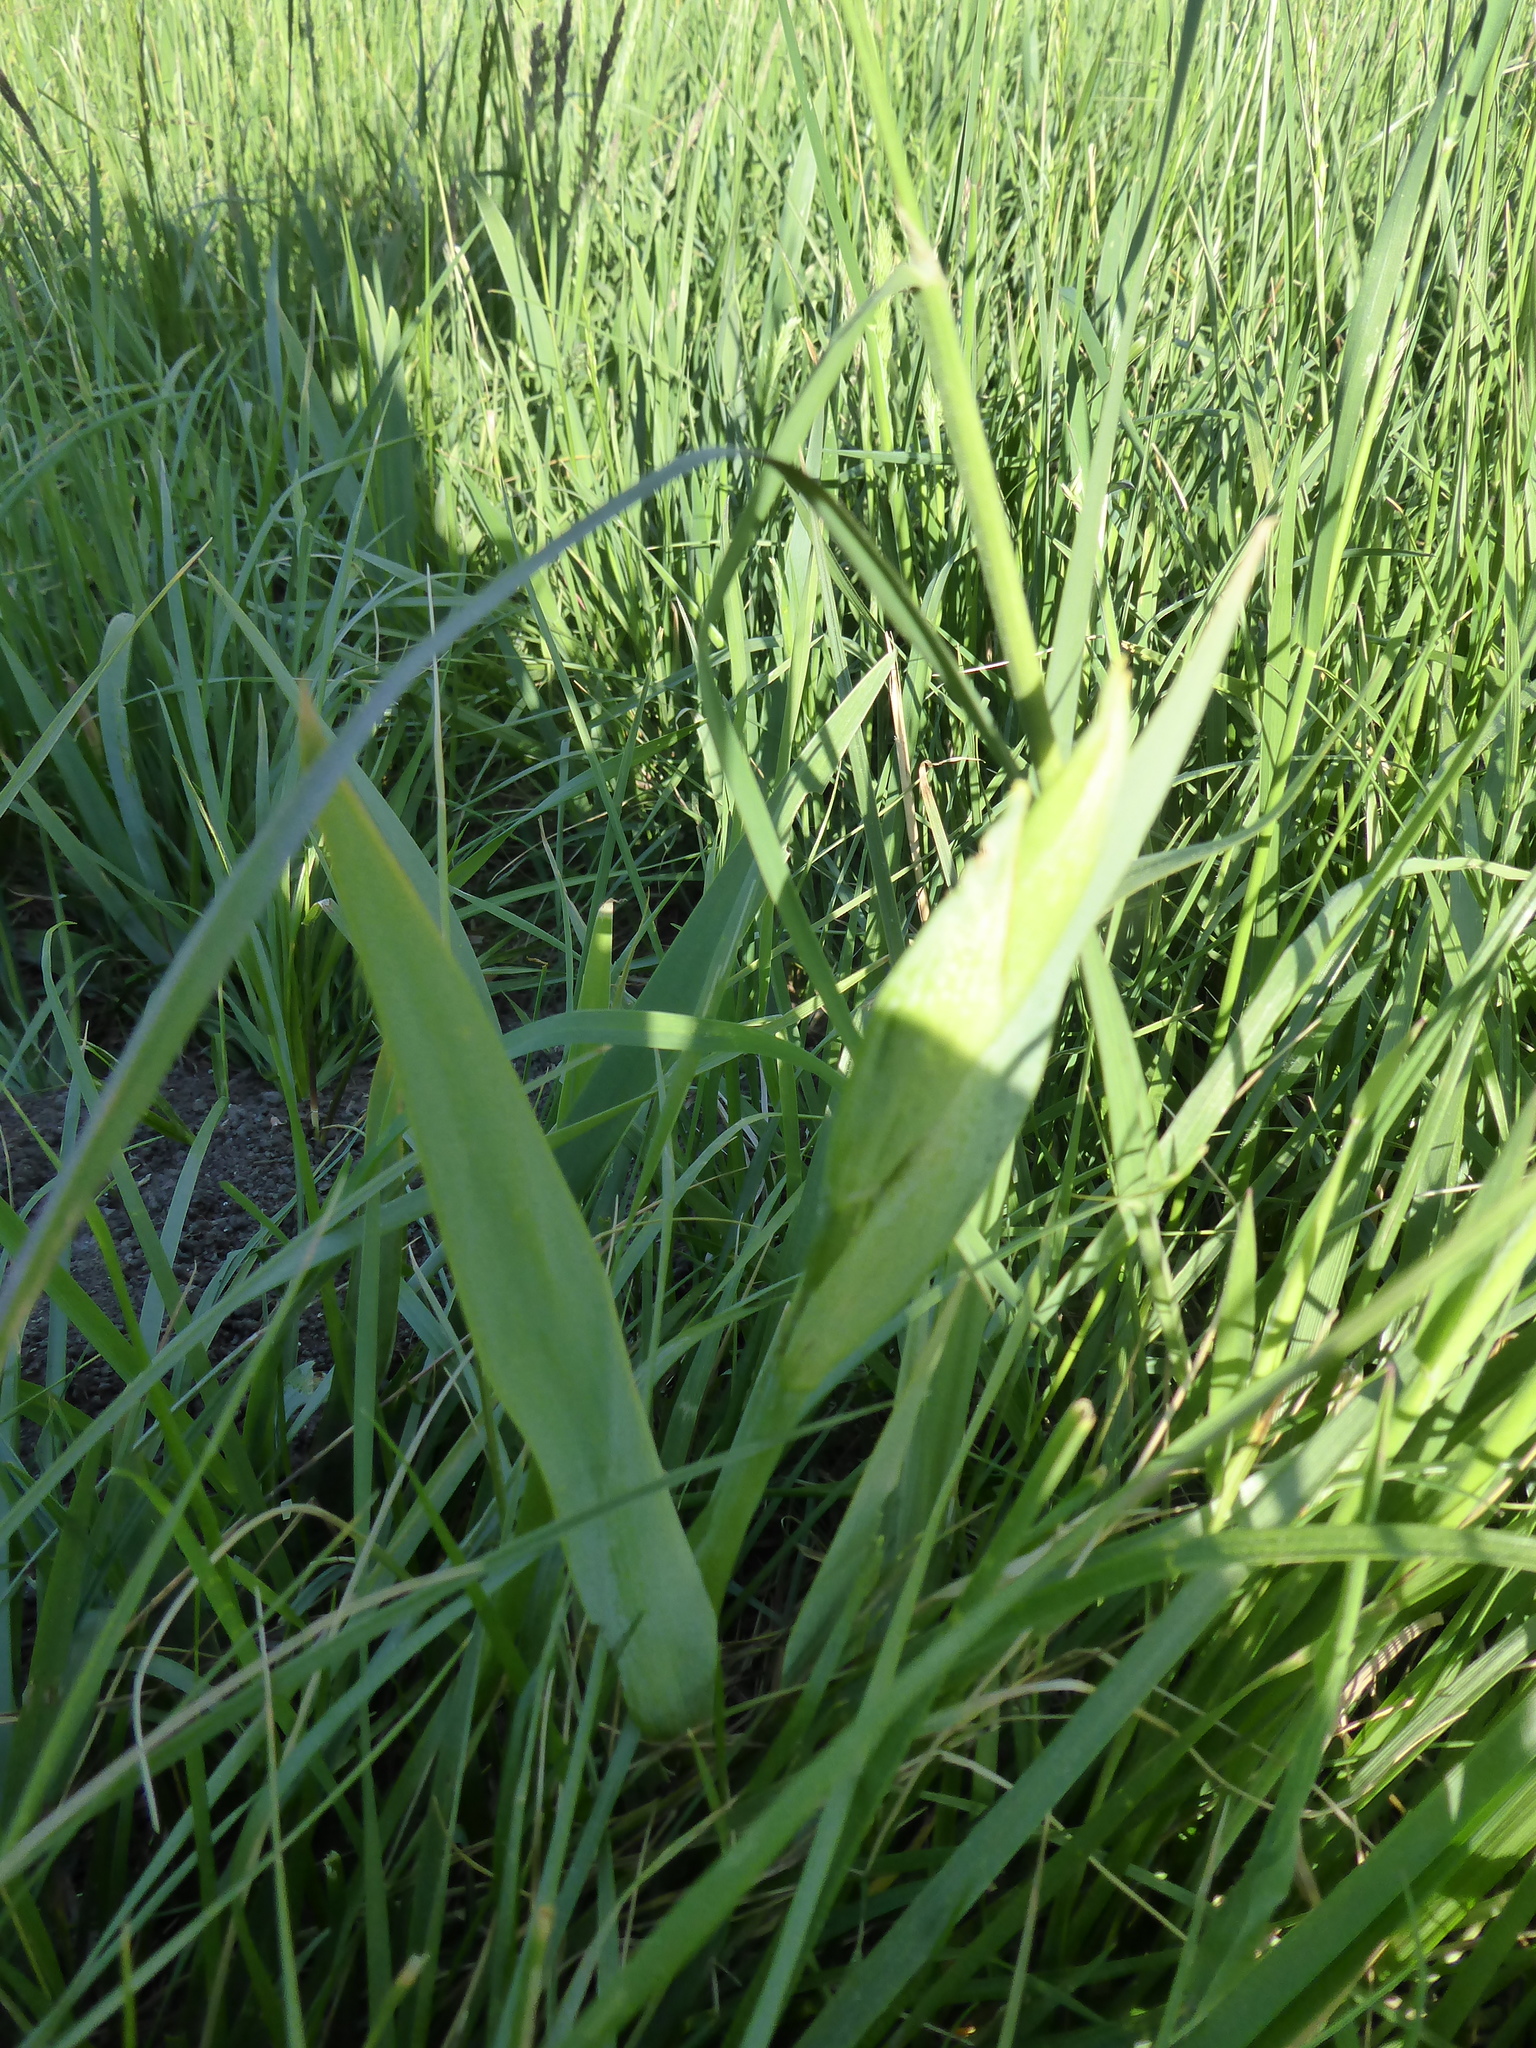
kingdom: Plantae
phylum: Tracheophyta
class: Liliopsida
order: Asparagales
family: Iridaceae
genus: Iris
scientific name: Iris pseudacorus
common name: Yellow flag
